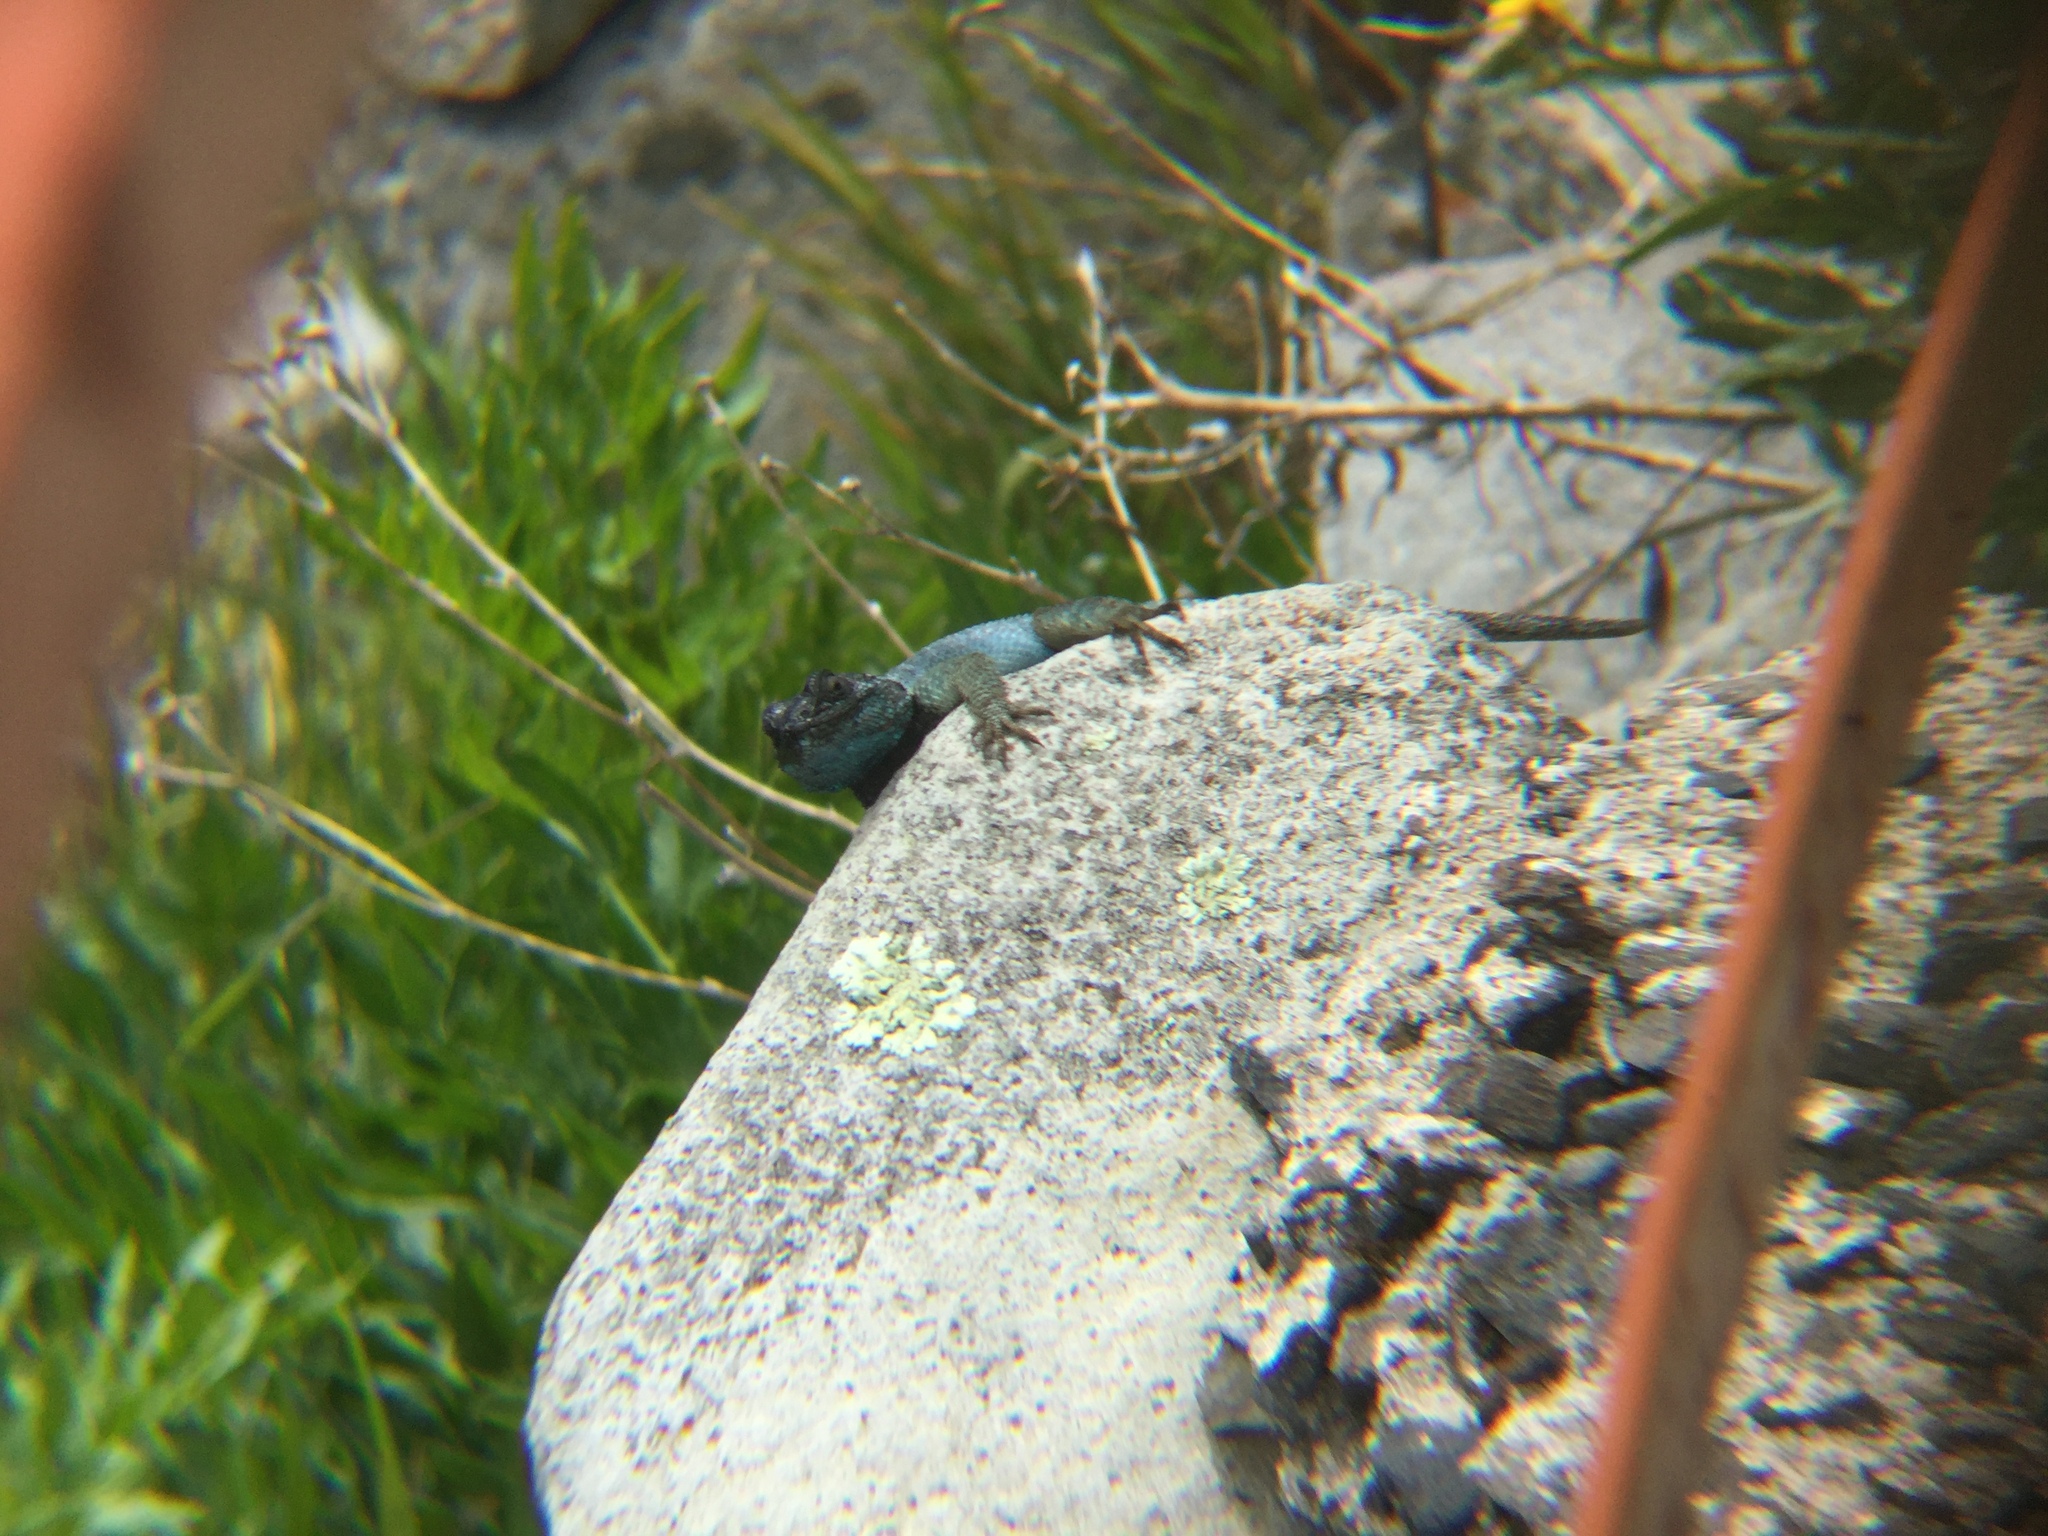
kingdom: Animalia
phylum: Chordata
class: Squamata
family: Phrynosomatidae
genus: Sceloporus
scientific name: Sceloporus minor
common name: Minor lizard
